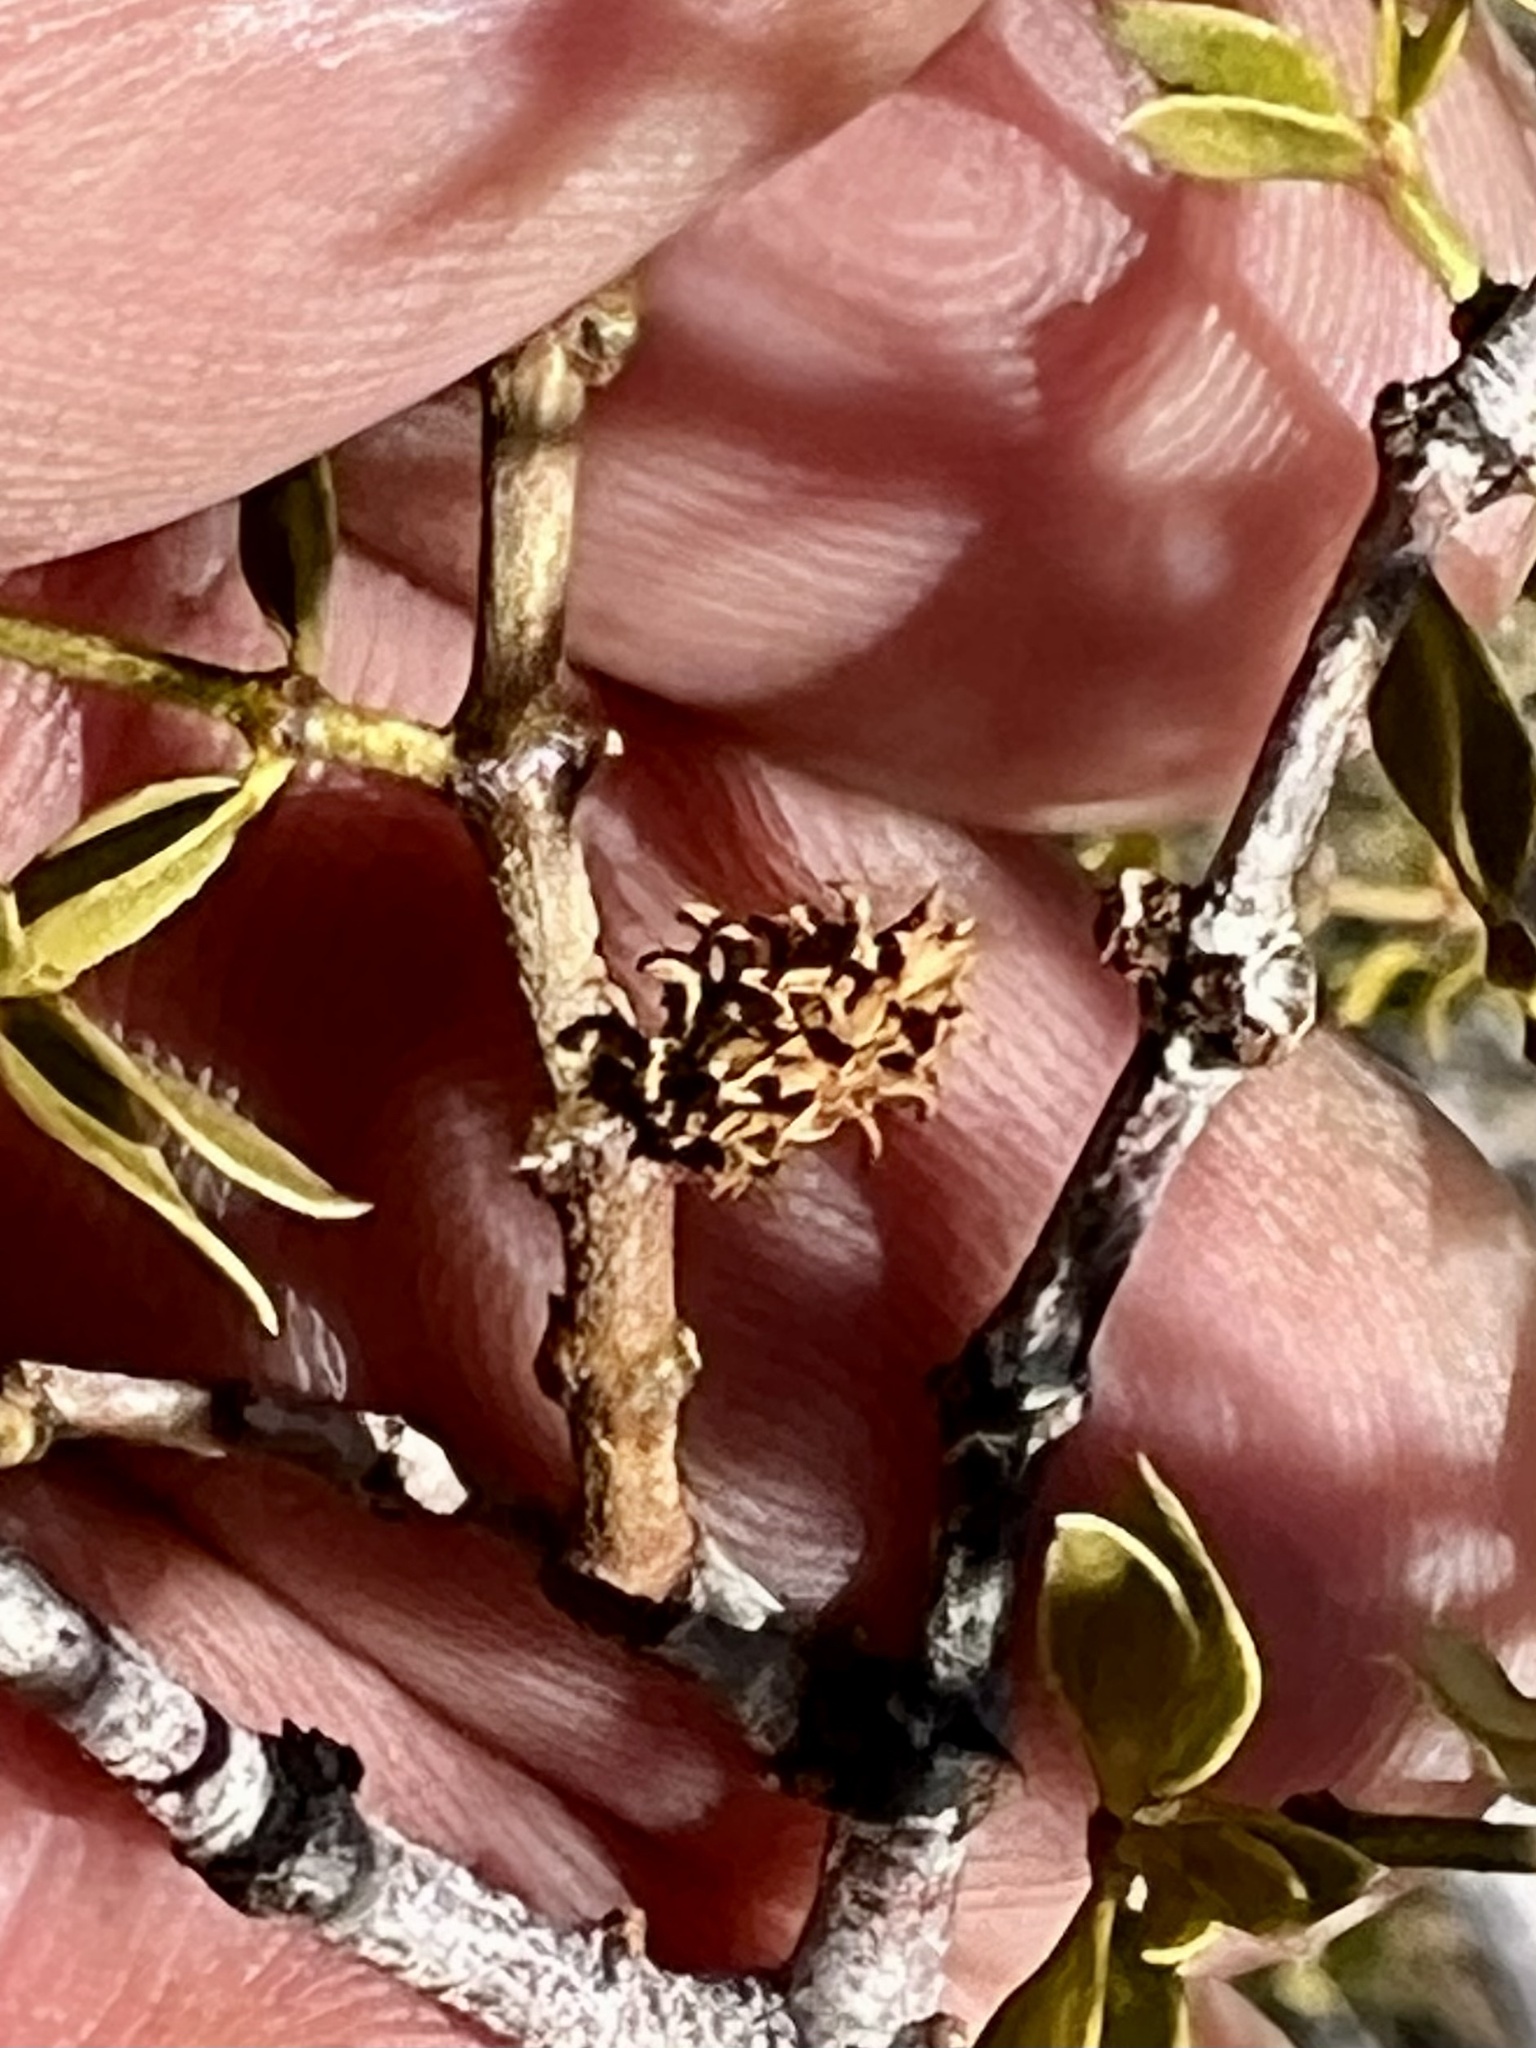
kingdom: Animalia
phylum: Arthropoda
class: Insecta
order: Diptera
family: Cecidomyiidae
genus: Asphondylia
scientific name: Asphondylia rosetta
